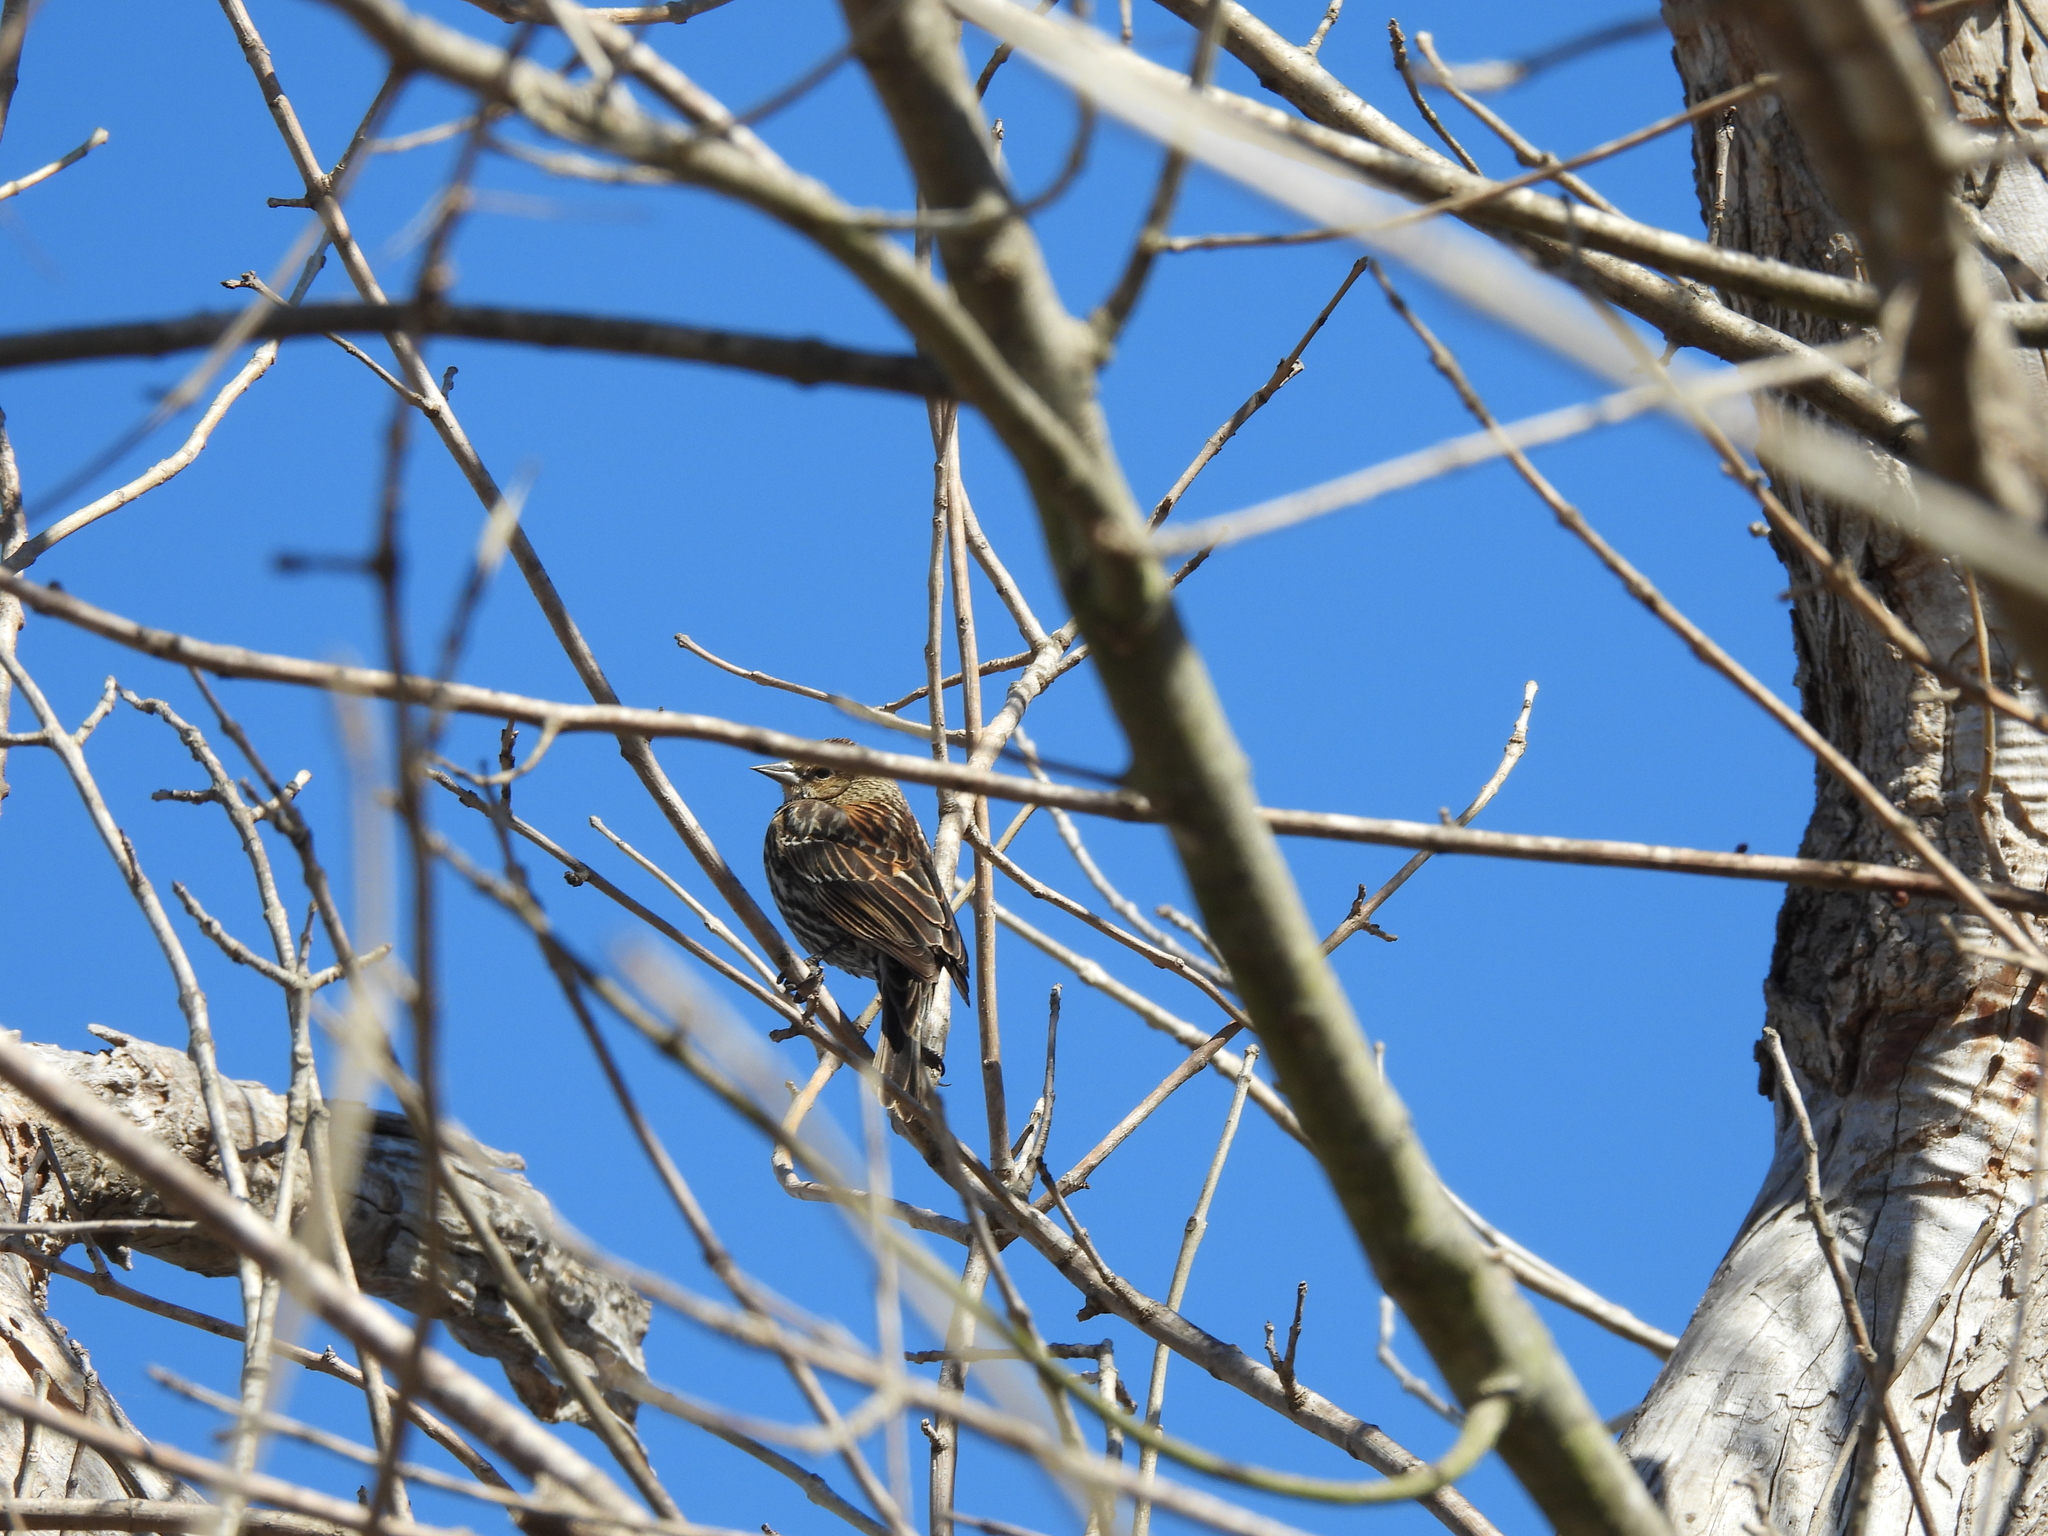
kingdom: Animalia
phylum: Chordata
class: Aves
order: Passeriformes
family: Icteridae
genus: Agelaius
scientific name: Agelaius phoeniceus
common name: Red-winged blackbird
